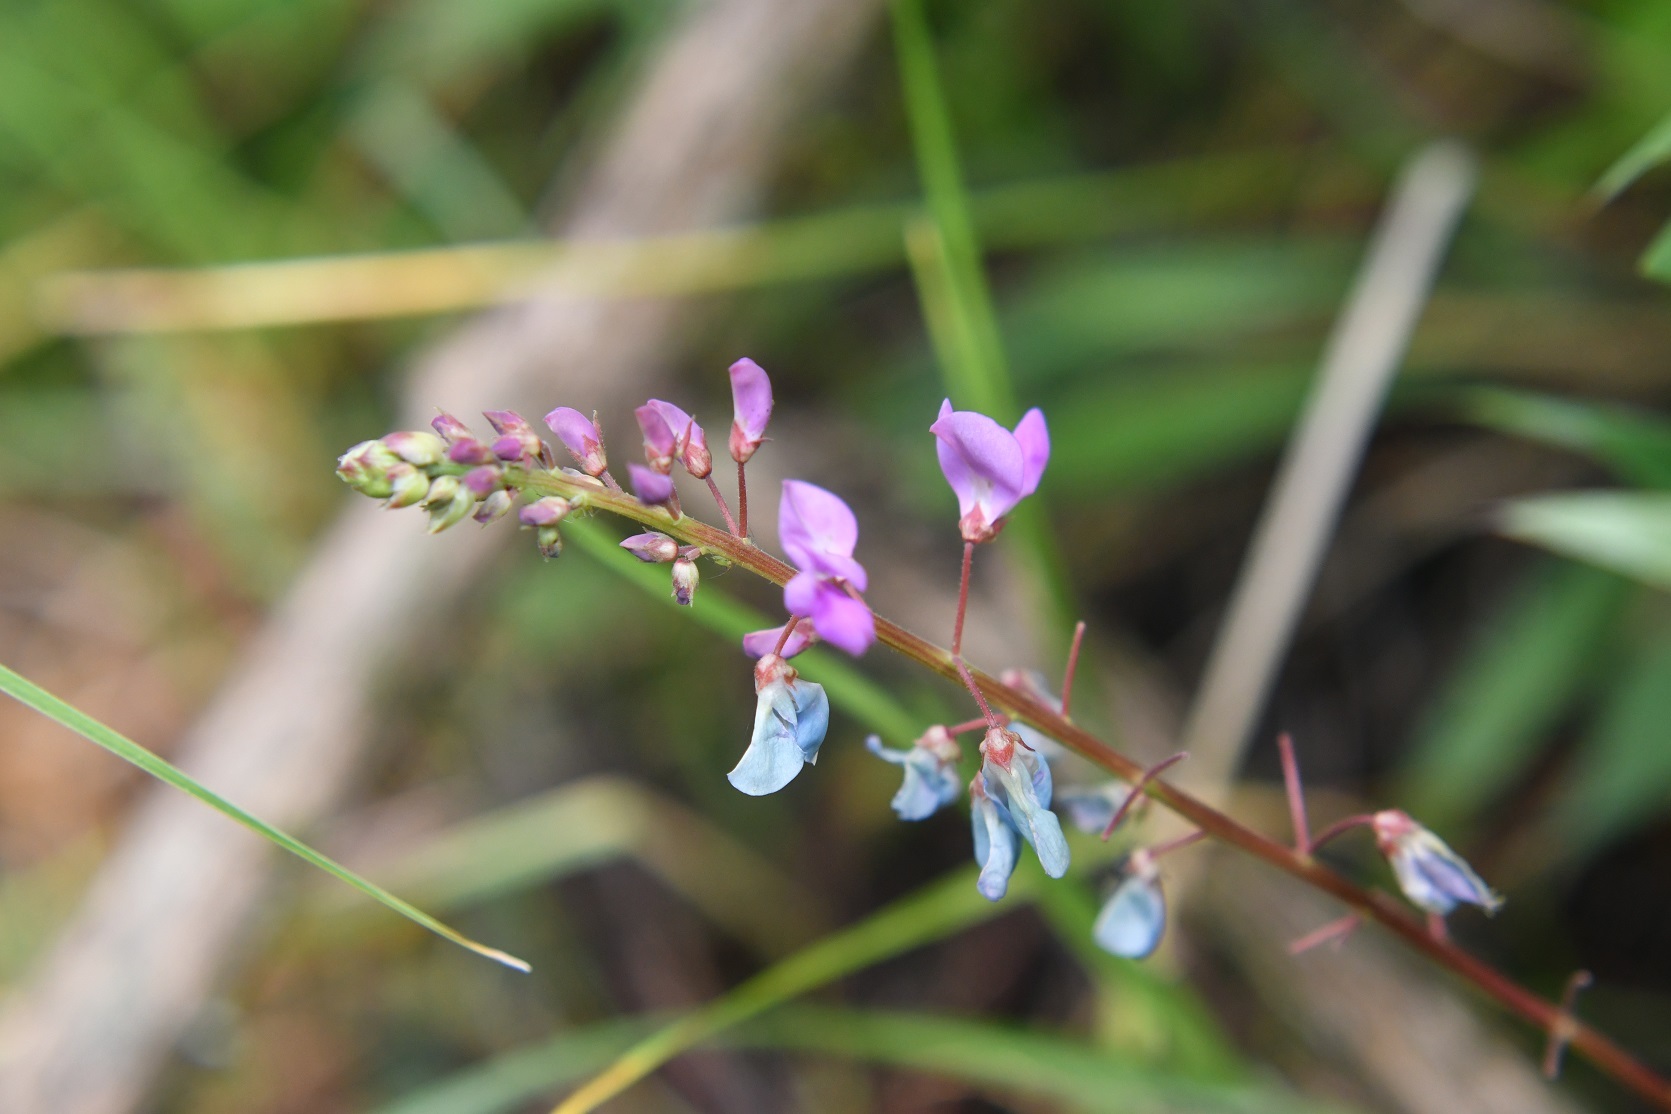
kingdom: Plantae
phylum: Tracheophyta
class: Magnoliopsida
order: Fabales
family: Fabaceae
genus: Desmodium
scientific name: Desmodium pringlei
